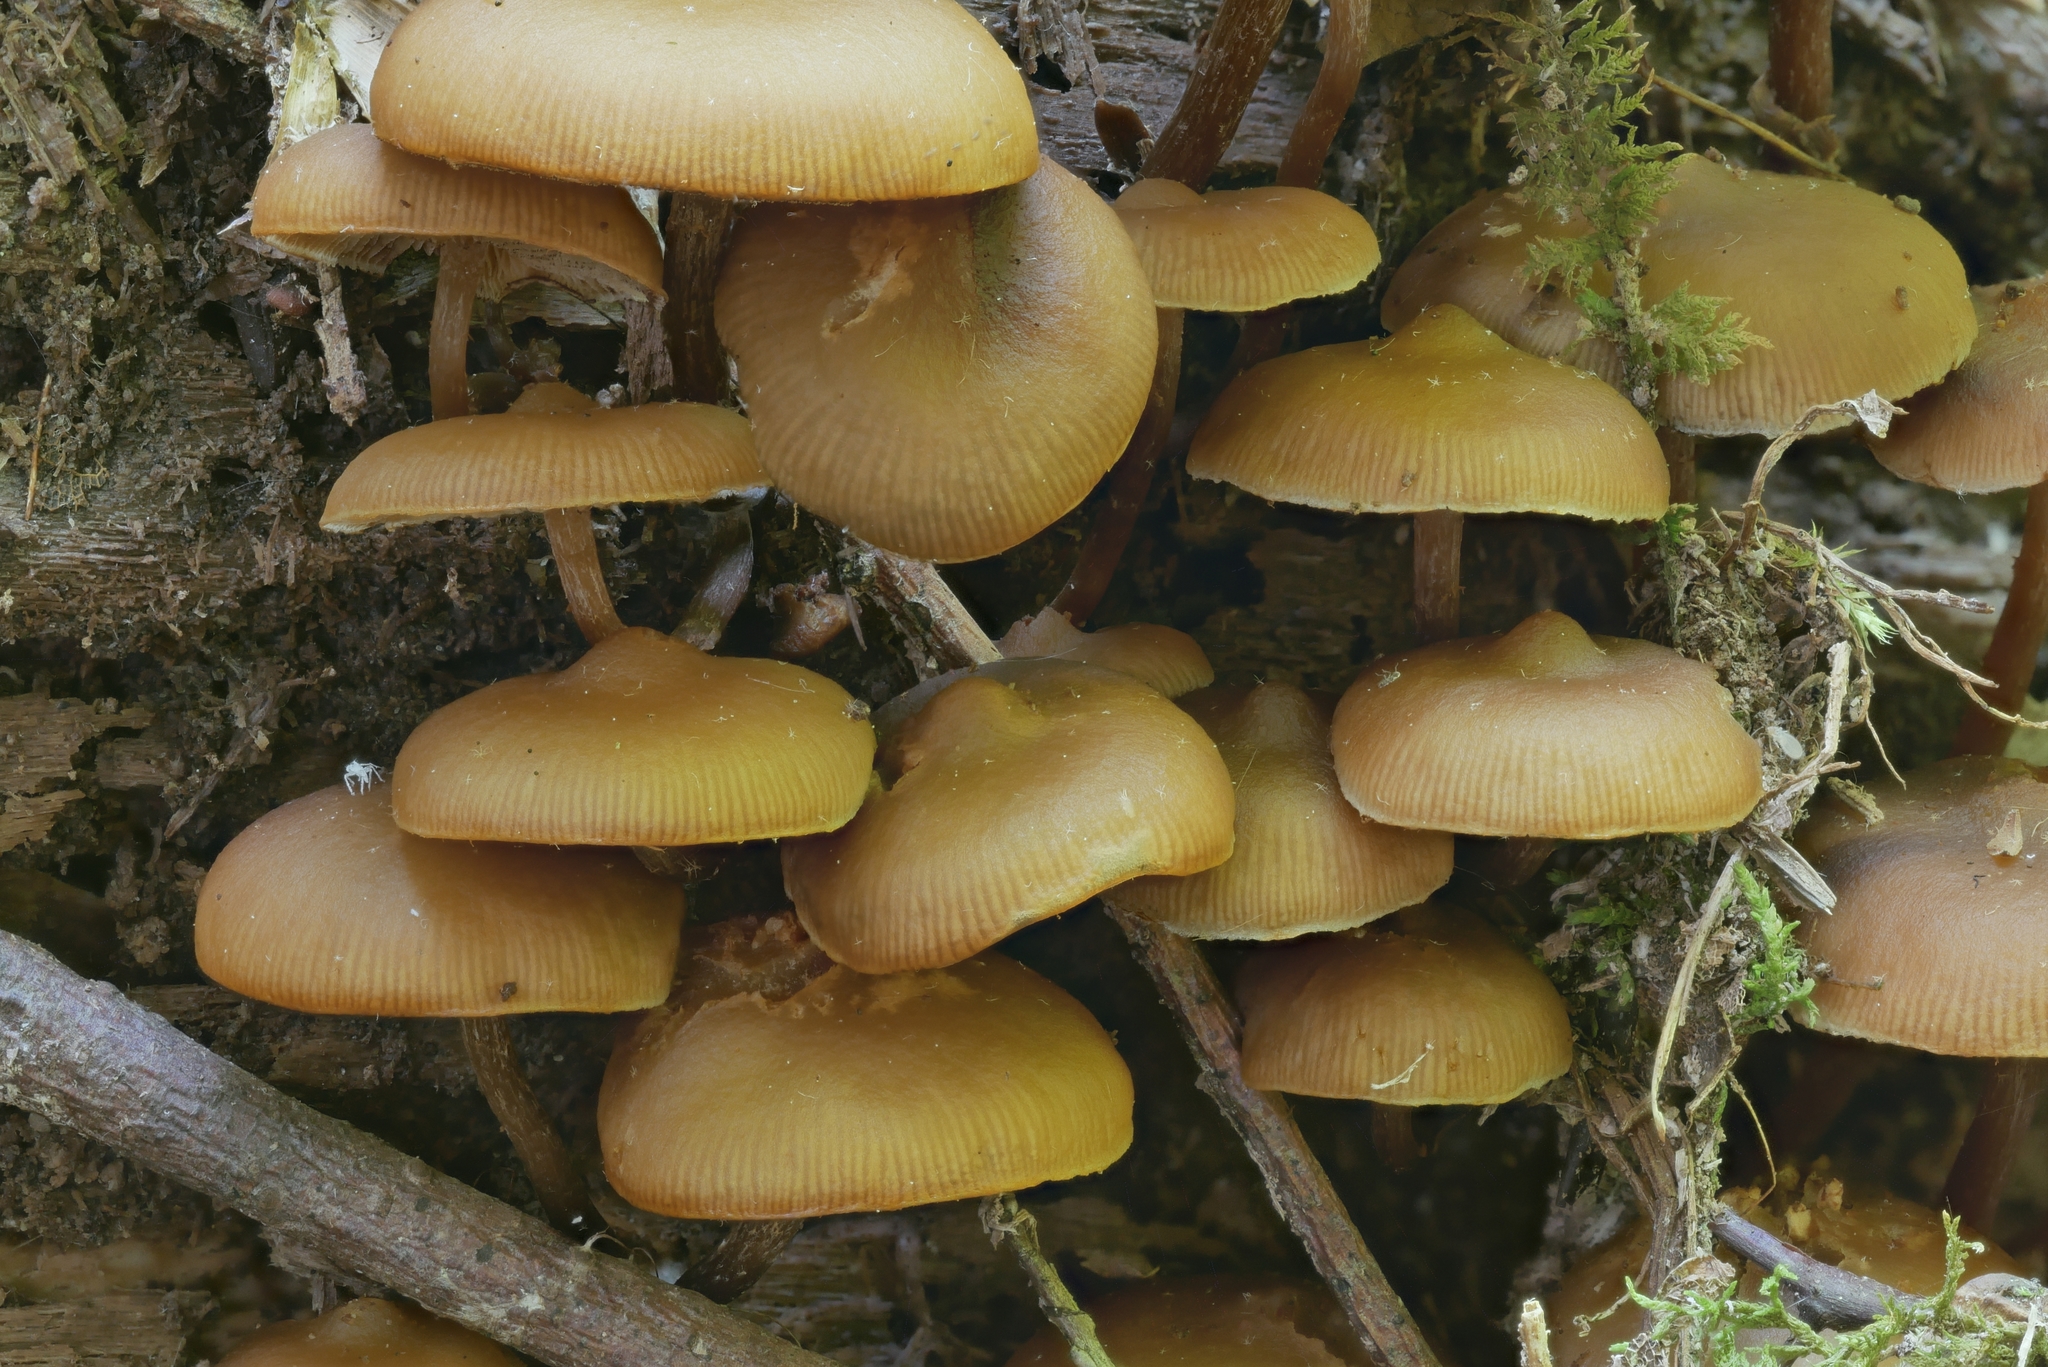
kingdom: Fungi
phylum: Basidiomycota
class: Agaricomycetes
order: Agaricales
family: Strophariaceae
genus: Pholiota
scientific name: Pholiota lignicola
